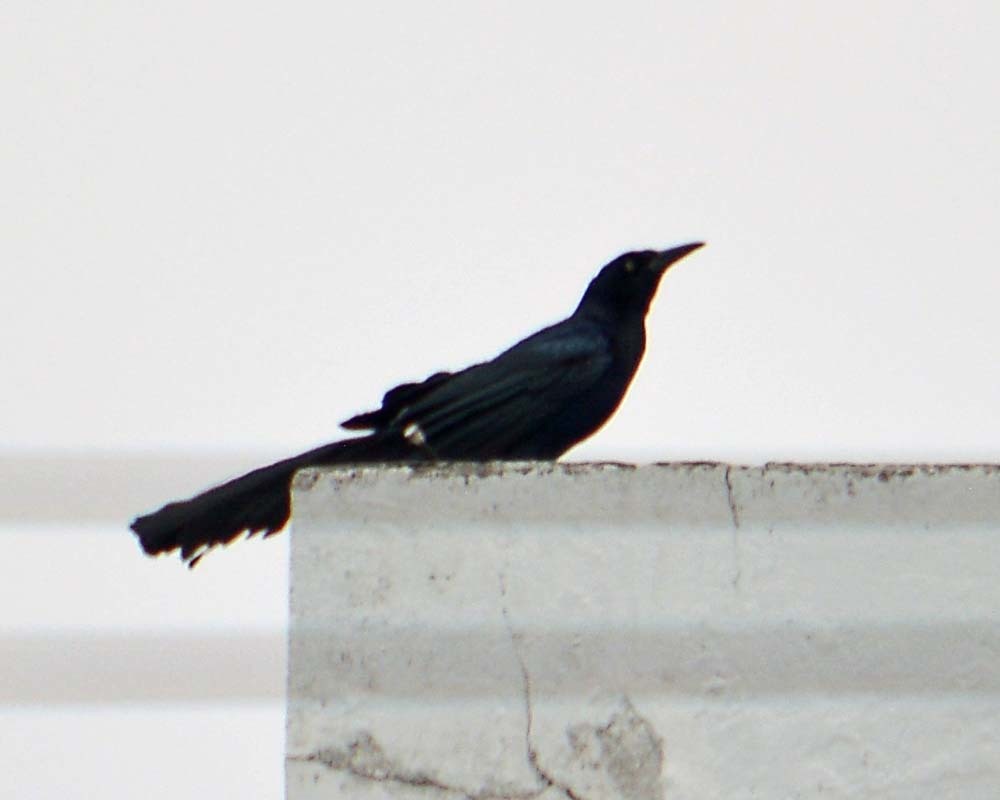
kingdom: Animalia
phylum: Chordata
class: Aves
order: Passeriformes
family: Icteridae
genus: Quiscalus
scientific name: Quiscalus mexicanus
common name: Great-tailed grackle
